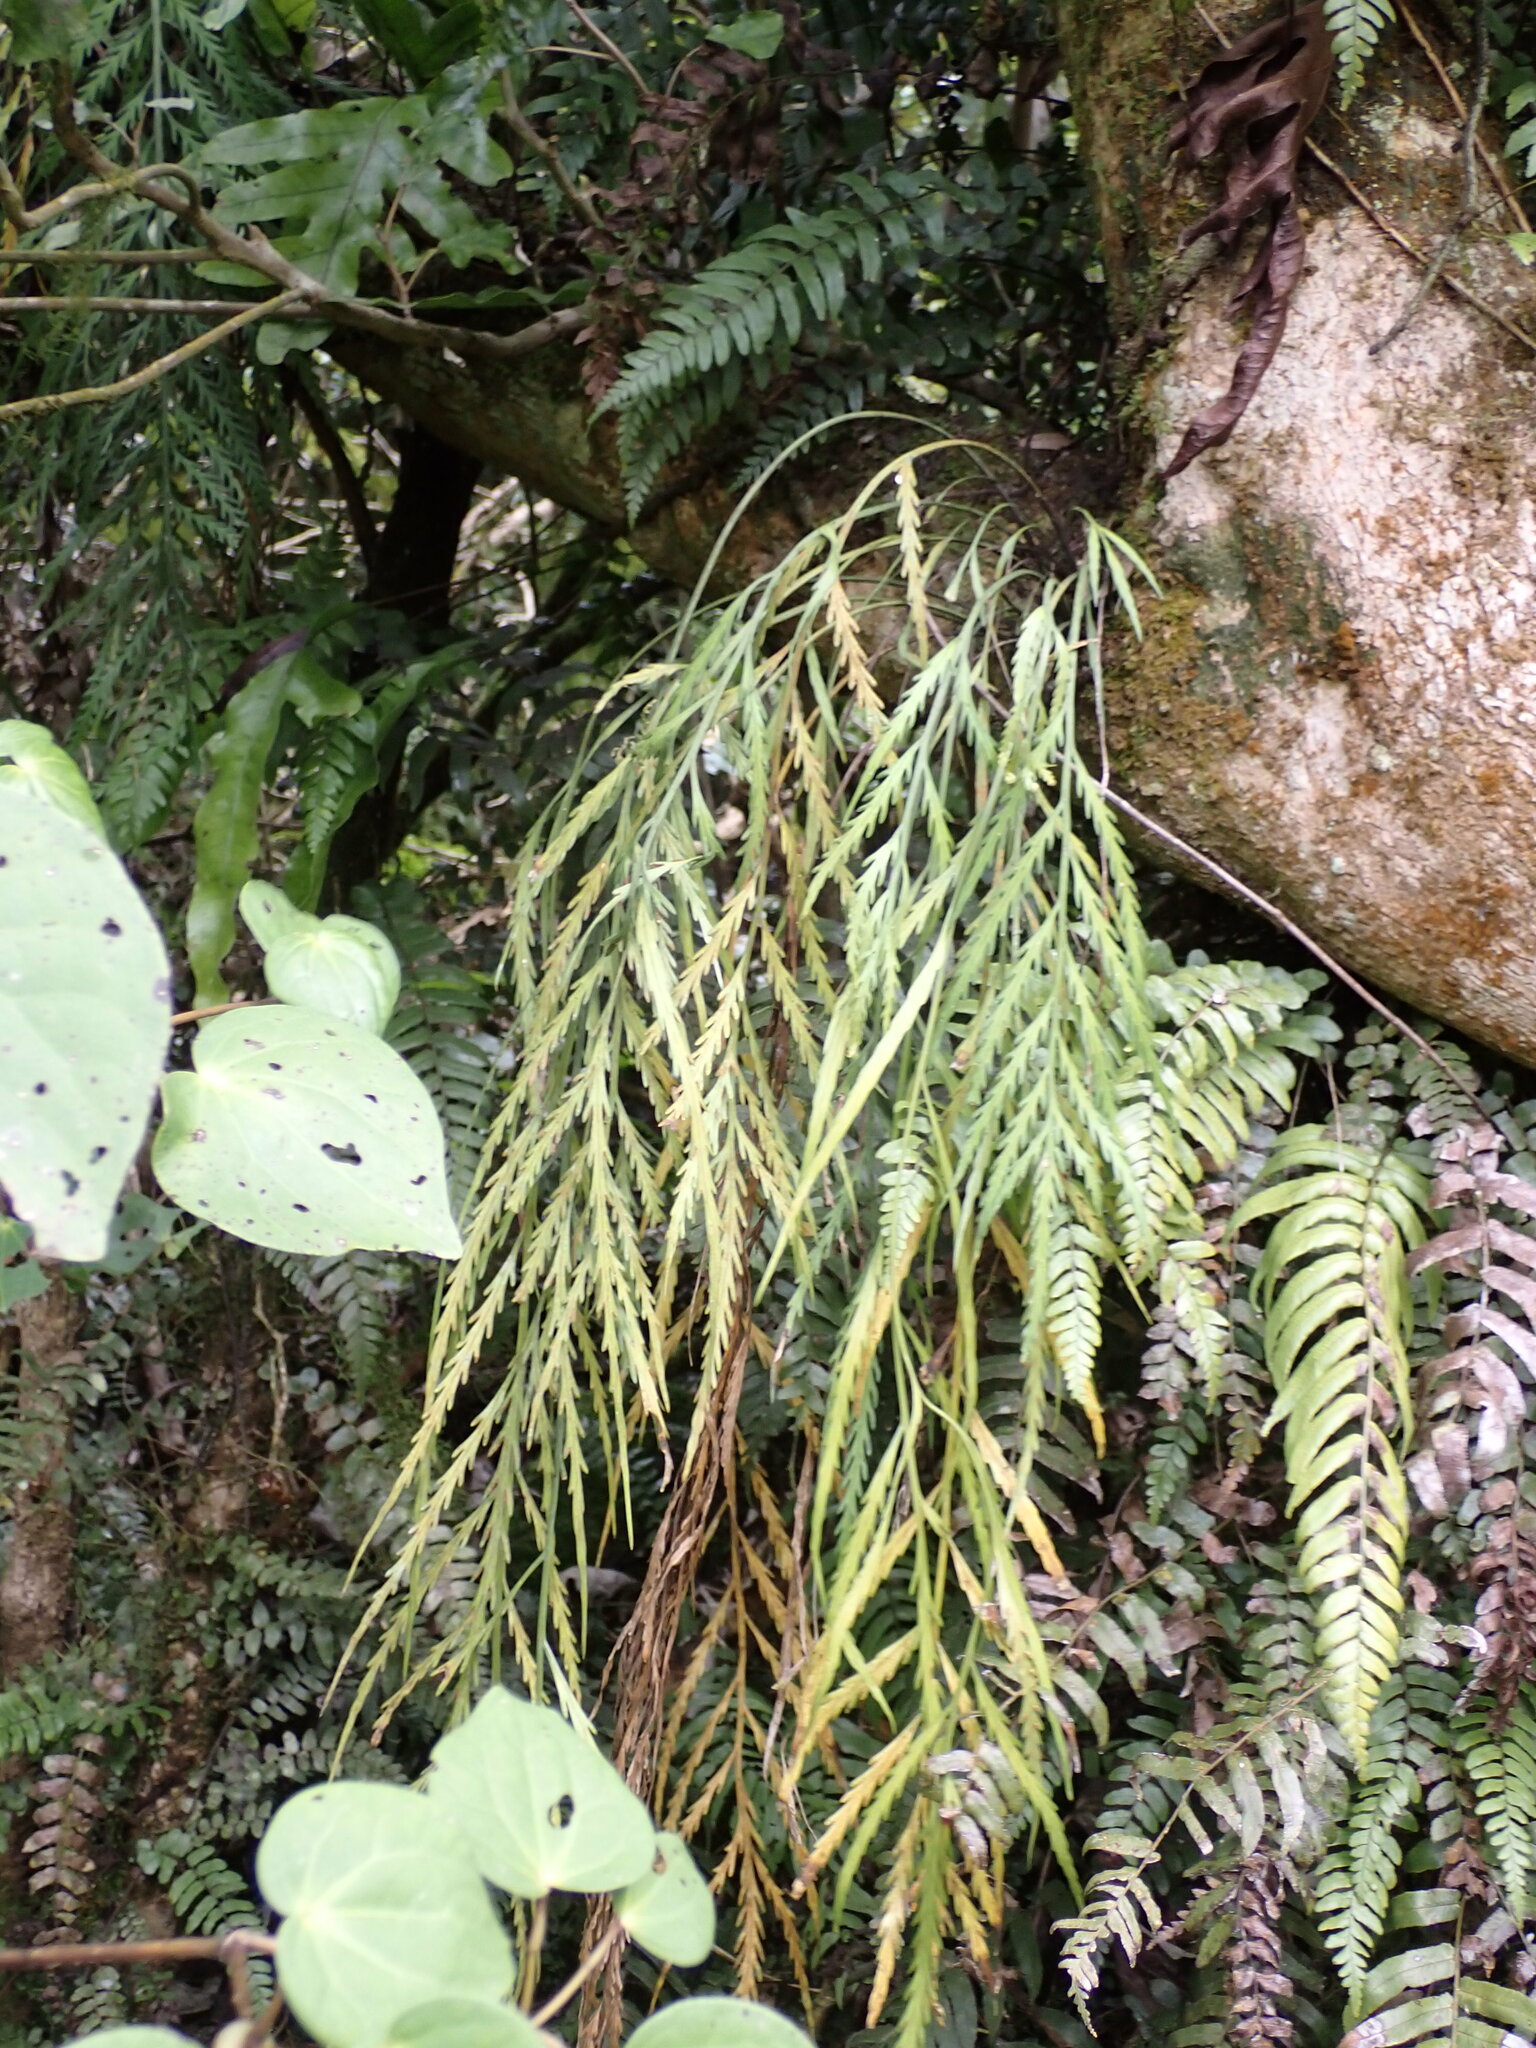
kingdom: Plantae
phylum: Tracheophyta
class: Polypodiopsida
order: Polypodiales
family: Aspleniaceae
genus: Asplenium
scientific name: Asplenium flaccidum
